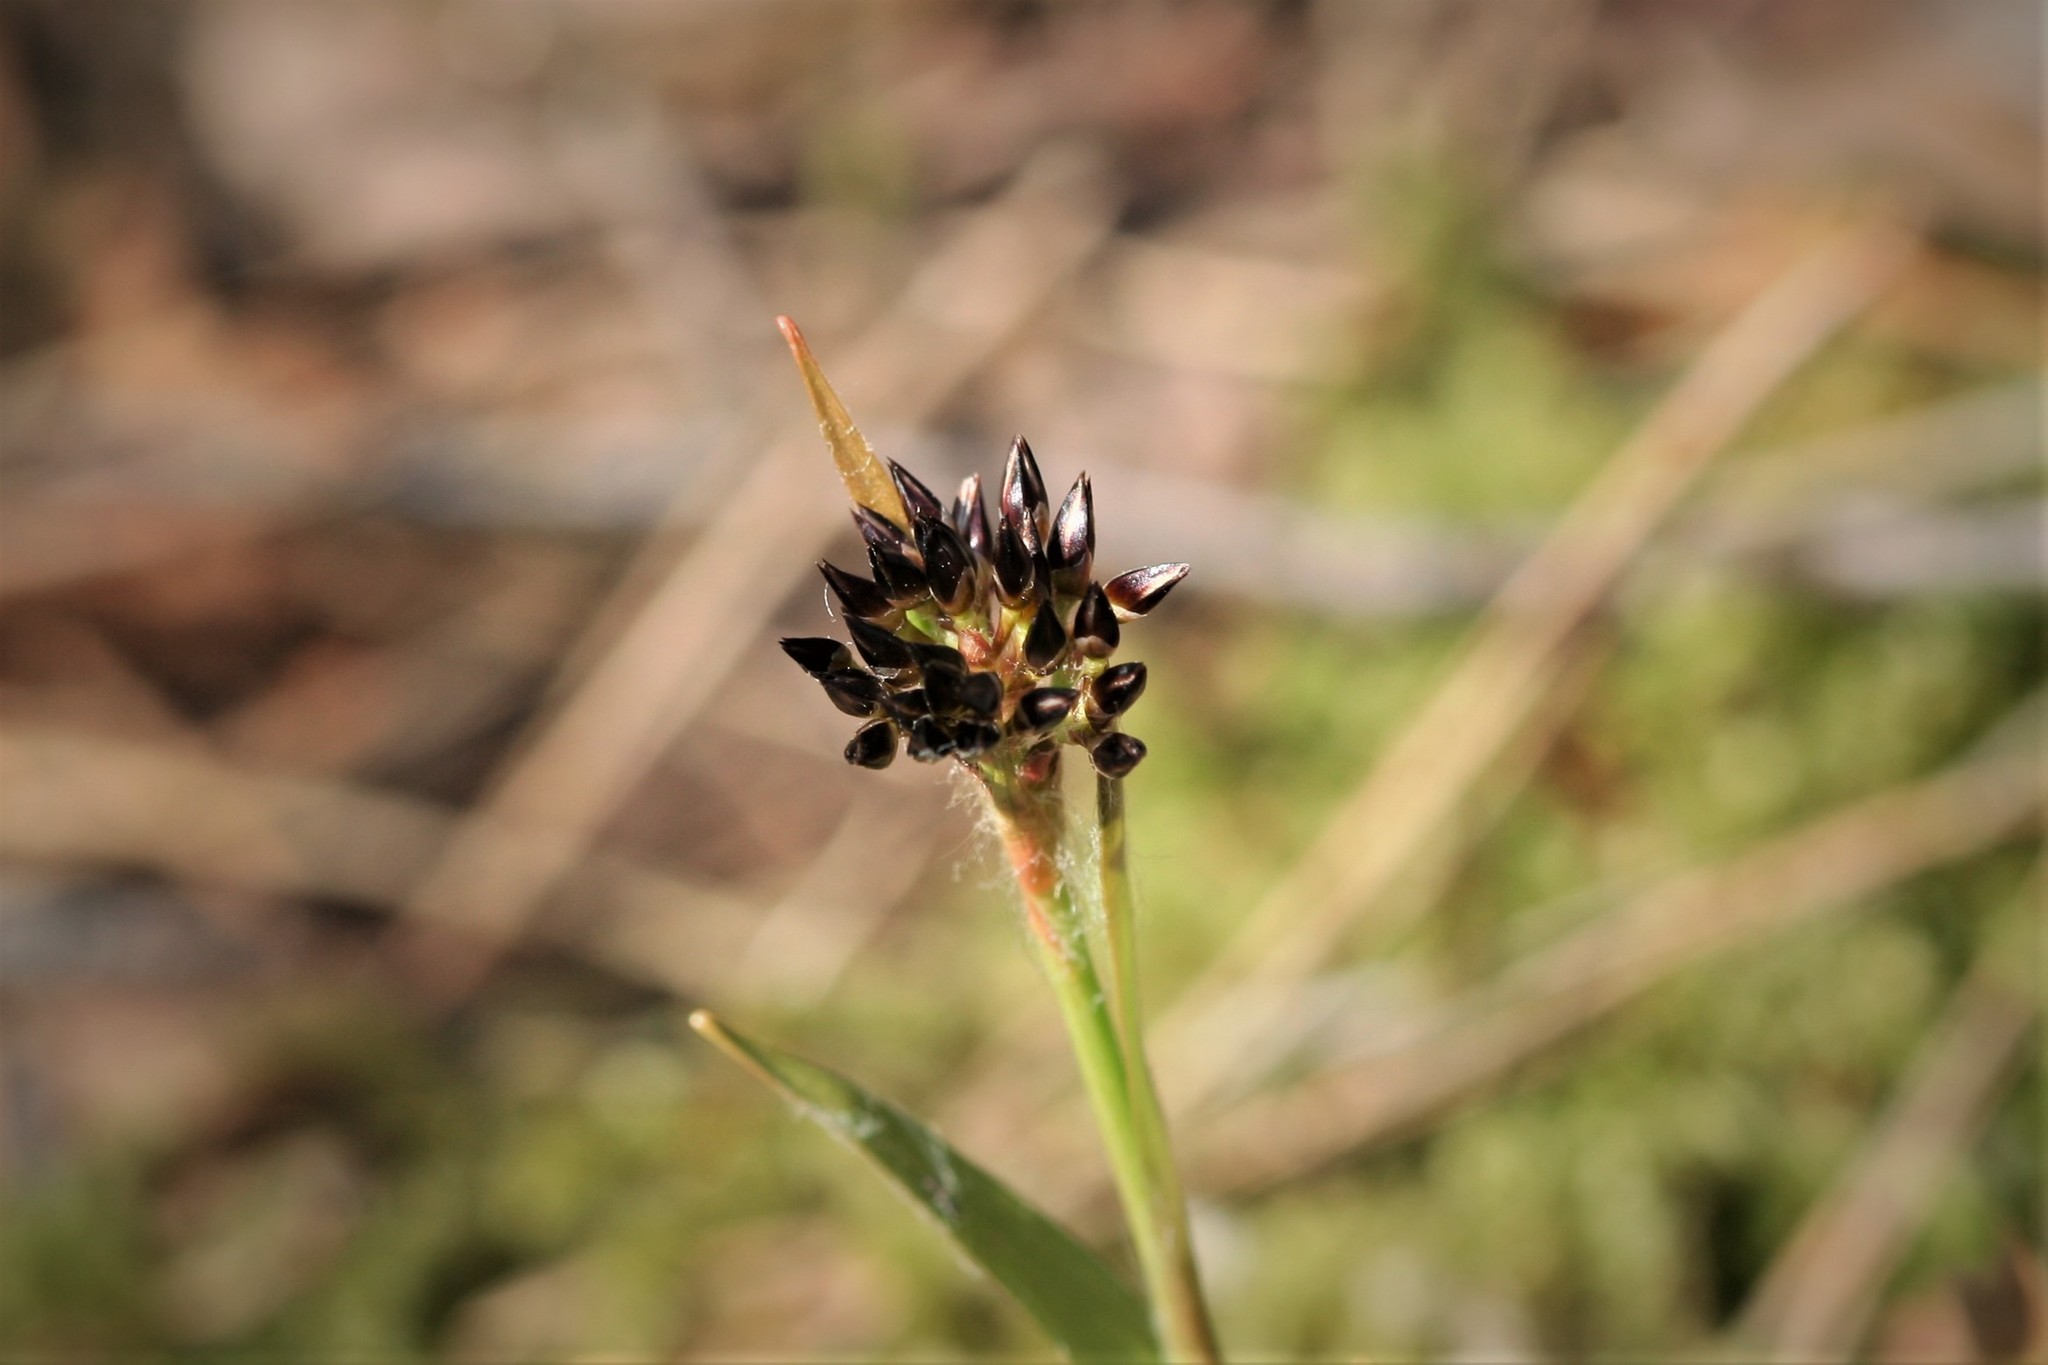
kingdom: Plantae
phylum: Tracheophyta
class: Liliopsida
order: Poales
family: Juncaceae
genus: Luzula
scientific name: Luzula pilosa
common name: Hairy wood-rush
